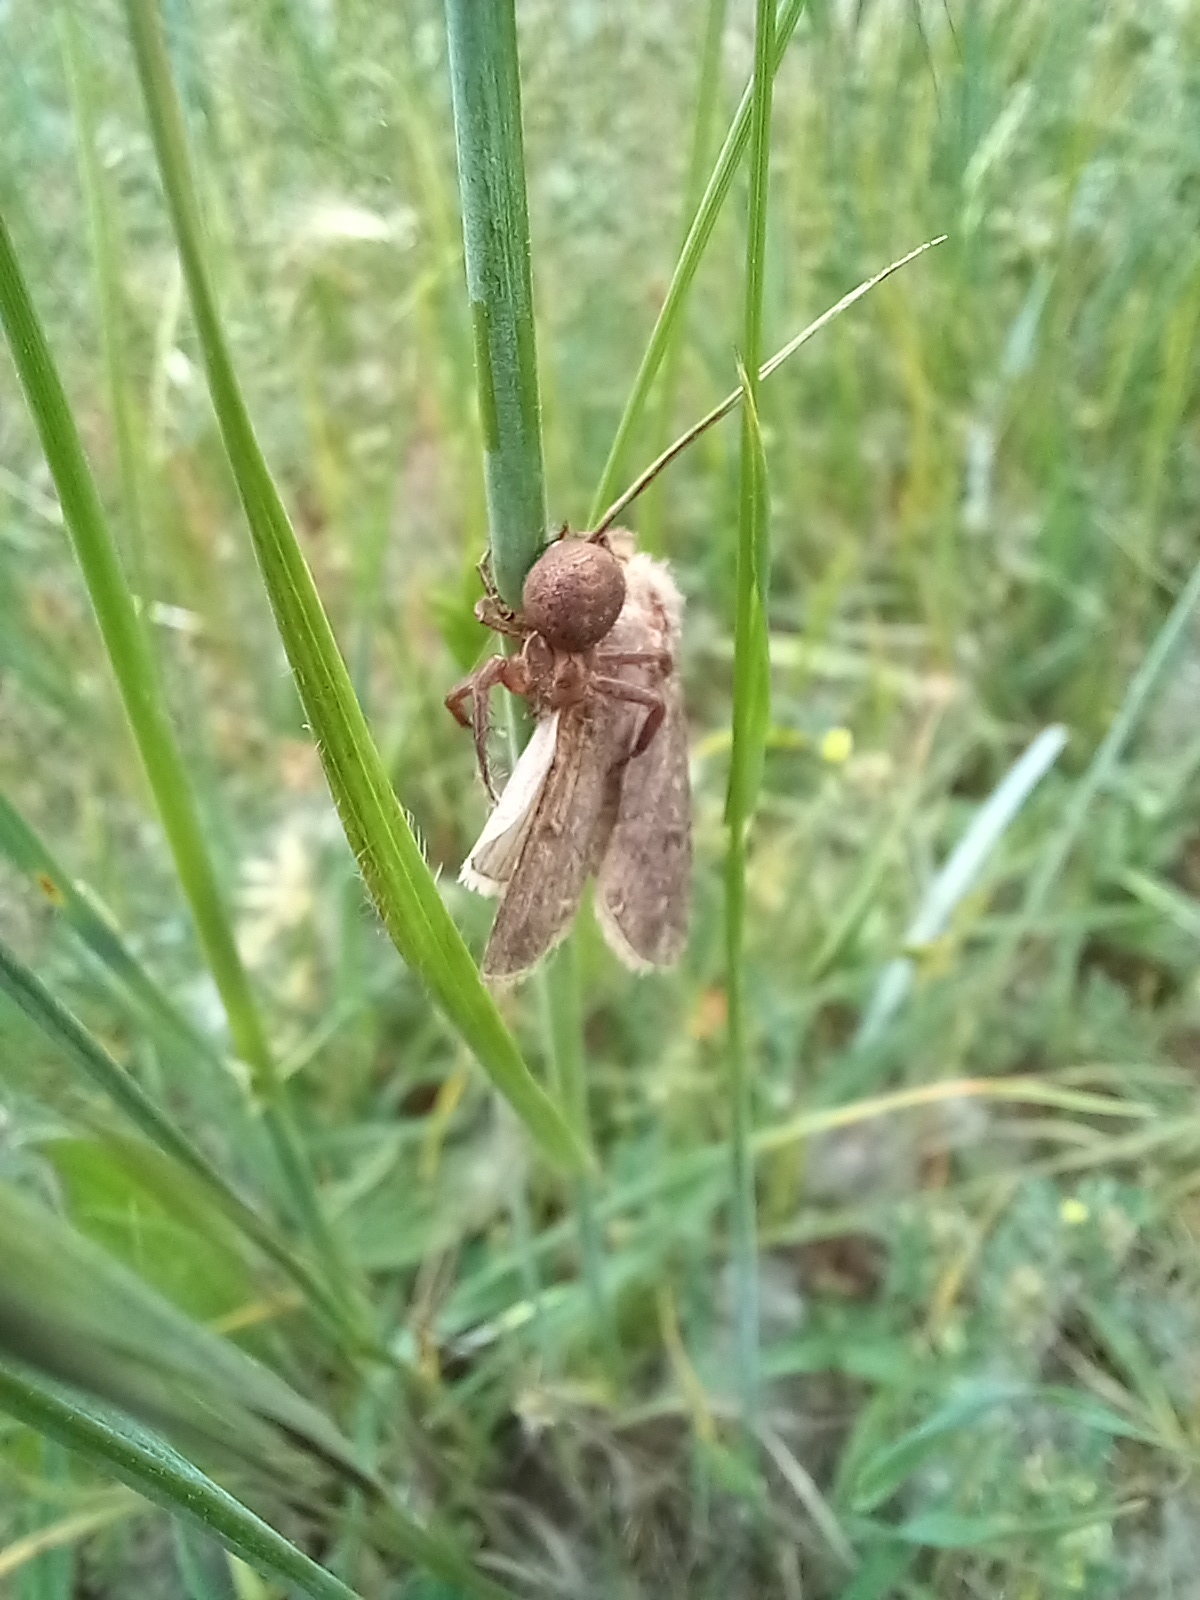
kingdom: Animalia
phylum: Arthropoda
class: Insecta
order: Lepidoptera
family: Noctuidae
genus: Agrotis
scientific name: Agrotis segetum
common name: Turnip moth
